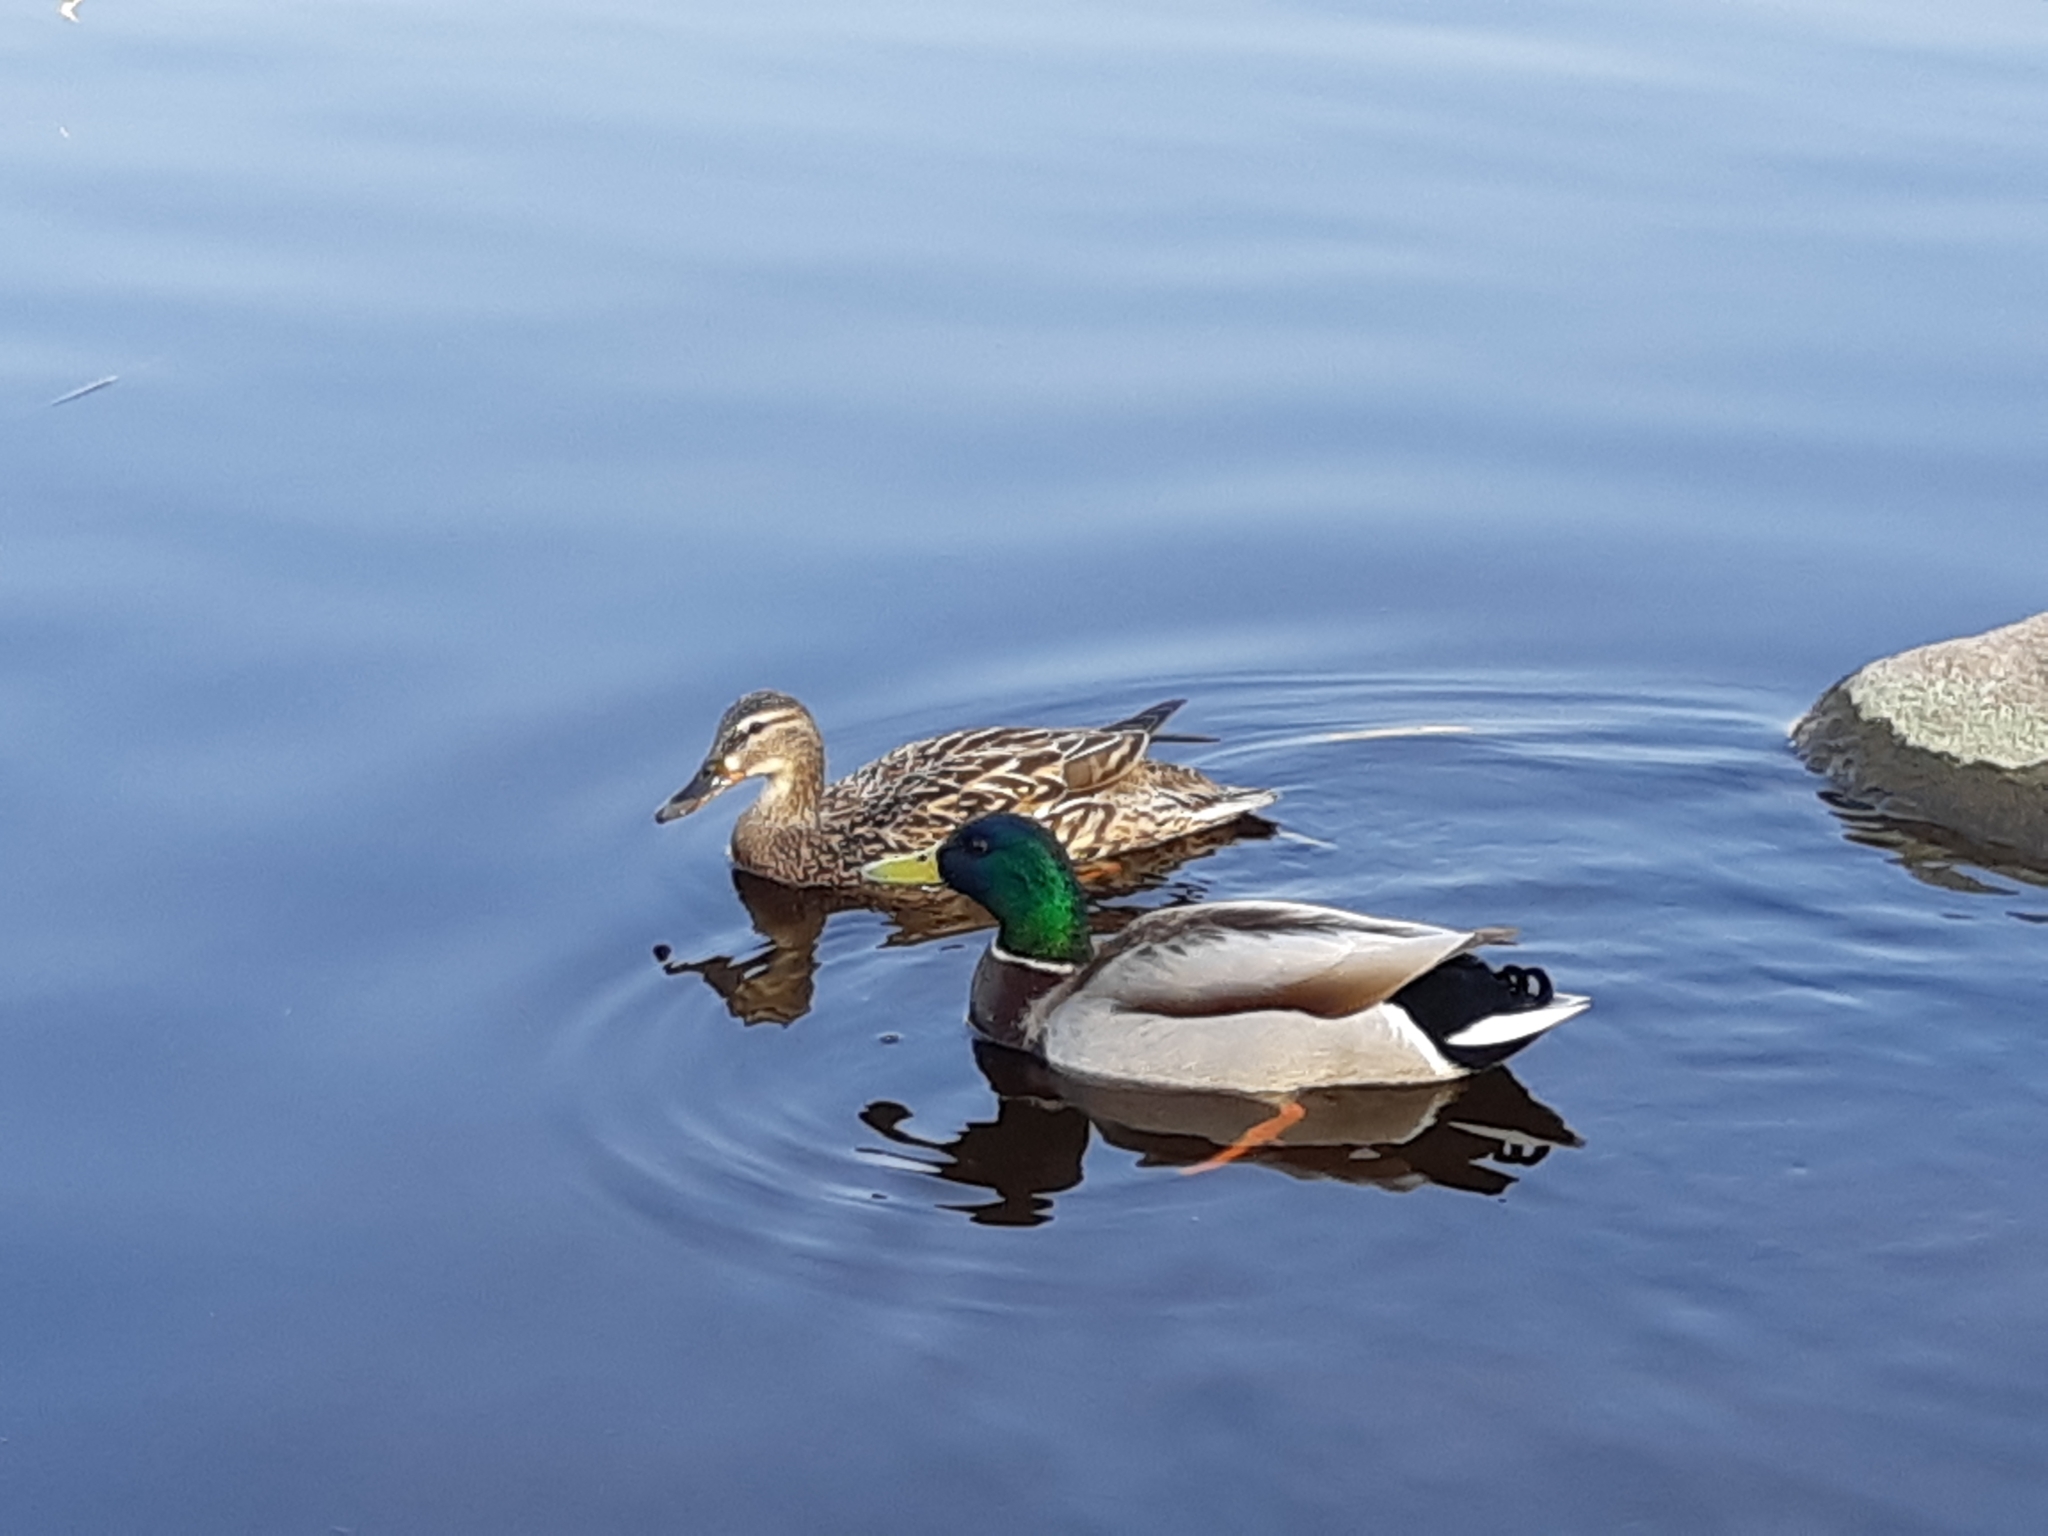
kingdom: Animalia
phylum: Chordata
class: Aves
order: Anseriformes
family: Anatidae
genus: Anas
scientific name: Anas platyrhynchos
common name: Mallard
